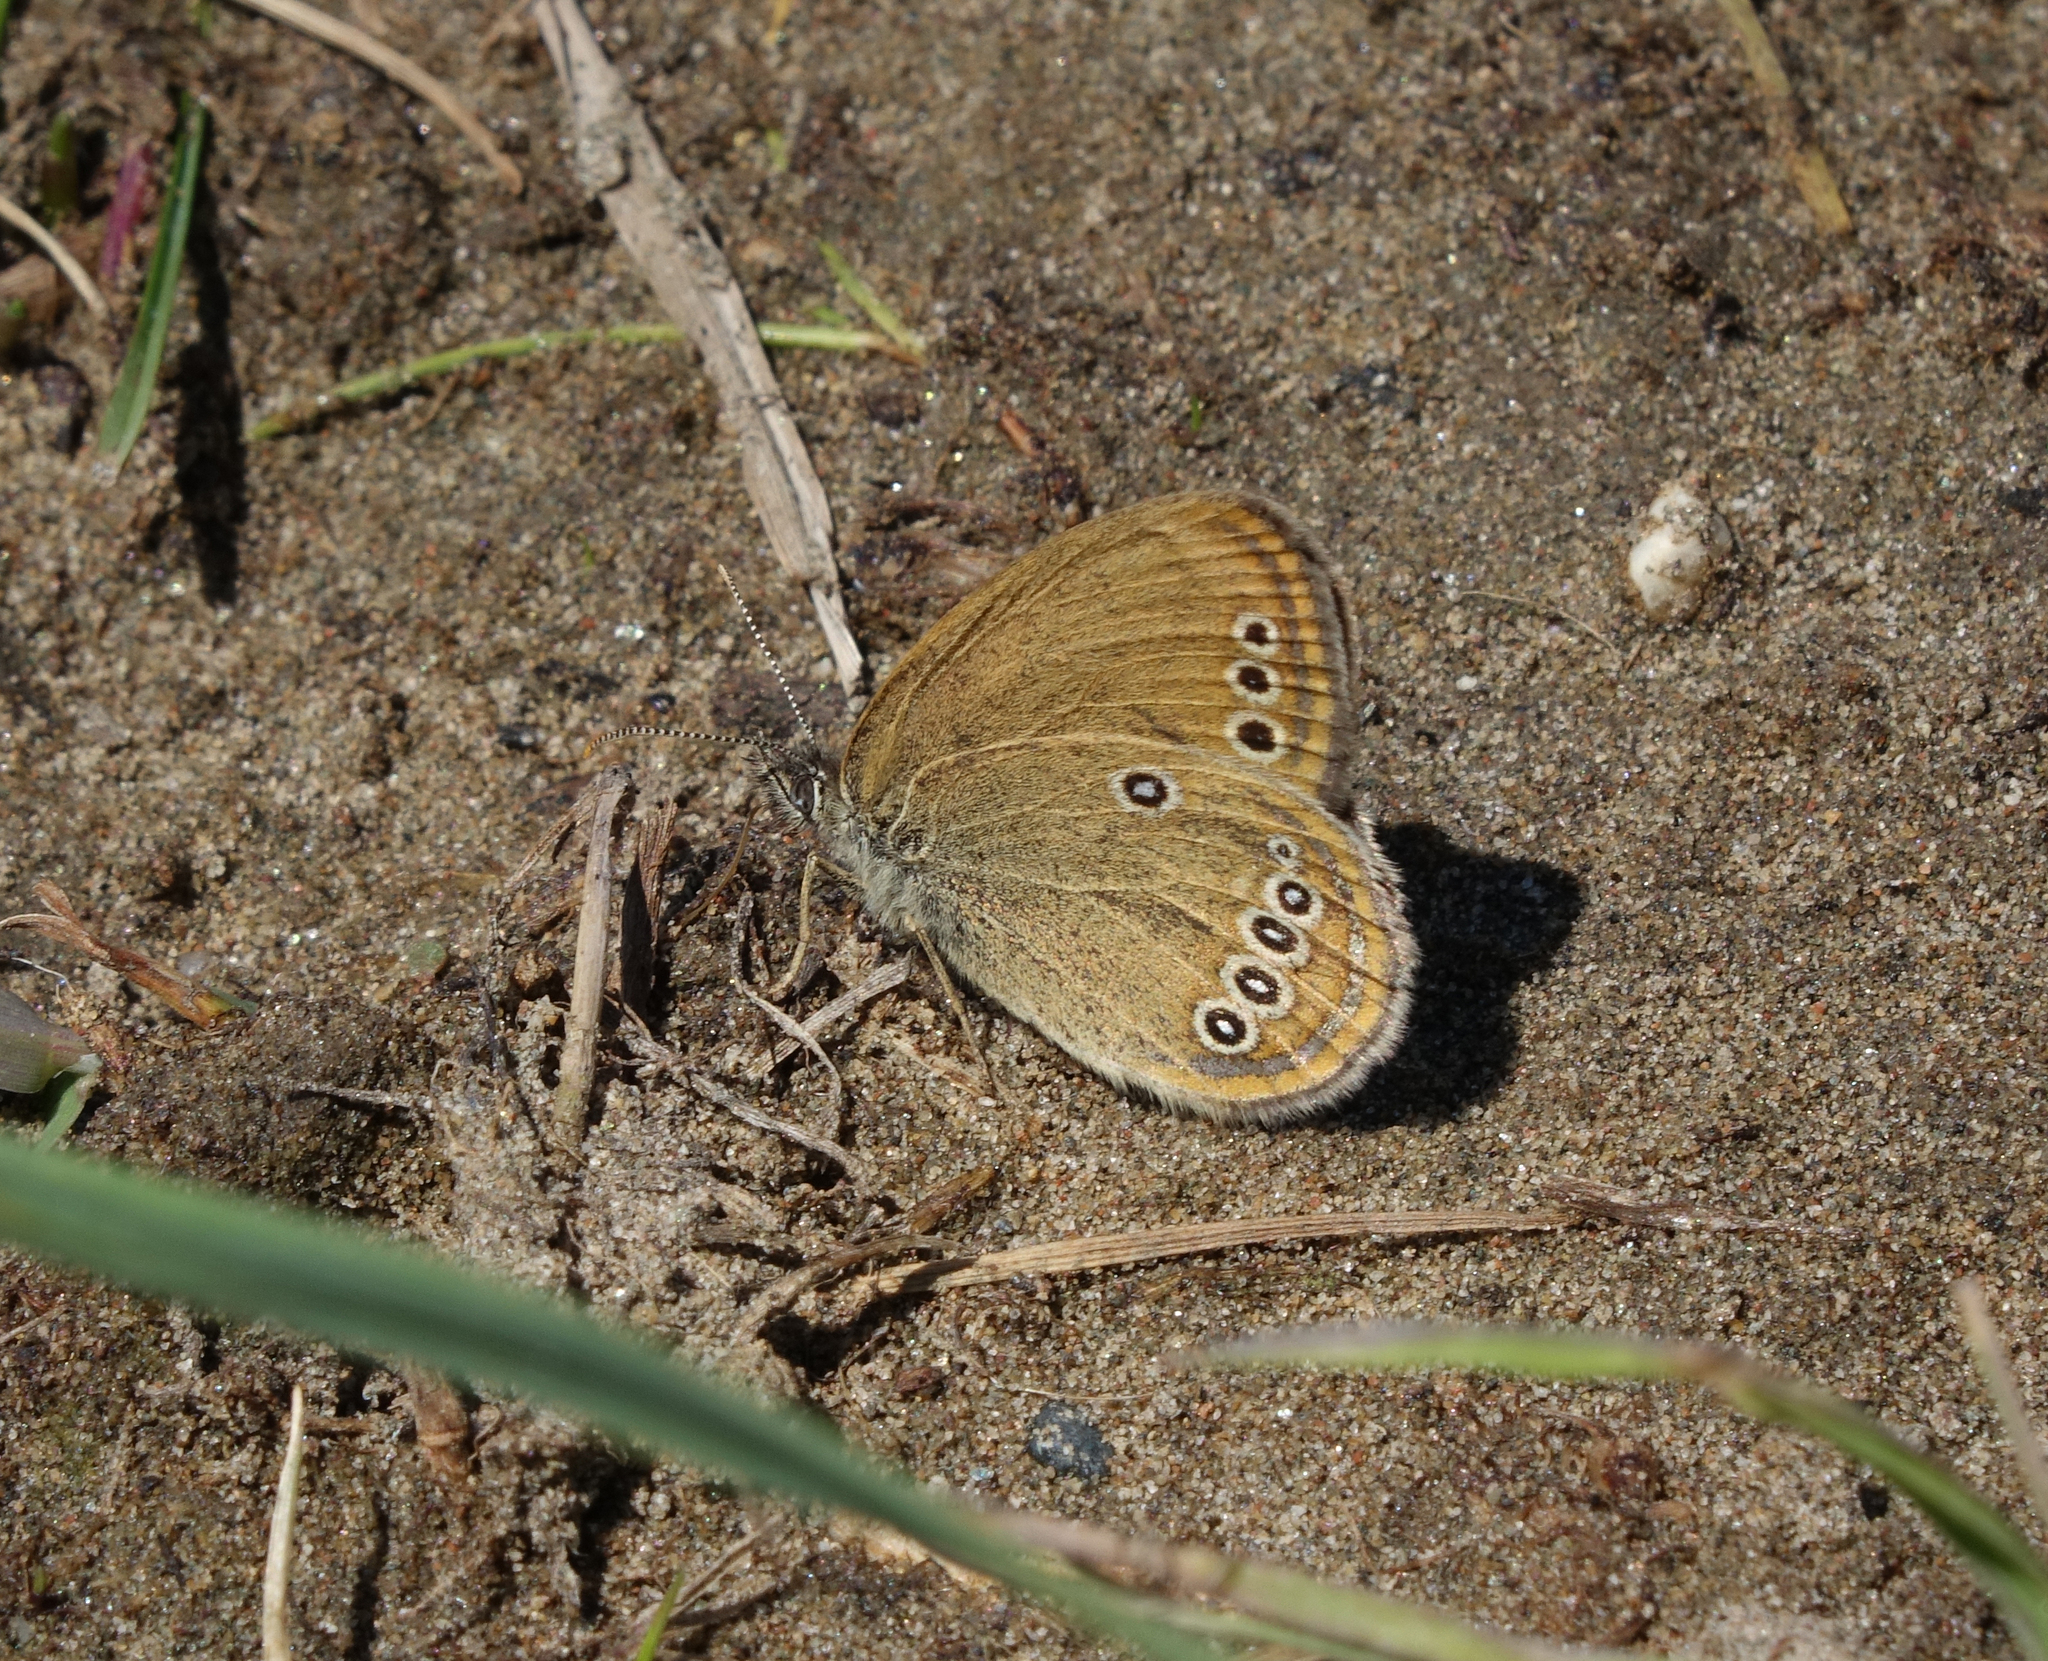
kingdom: Animalia
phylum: Arthropoda
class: Insecta
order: Lepidoptera
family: Nymphalidae
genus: Coenonympha
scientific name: Coenonympha oedippus
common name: False ringlet
